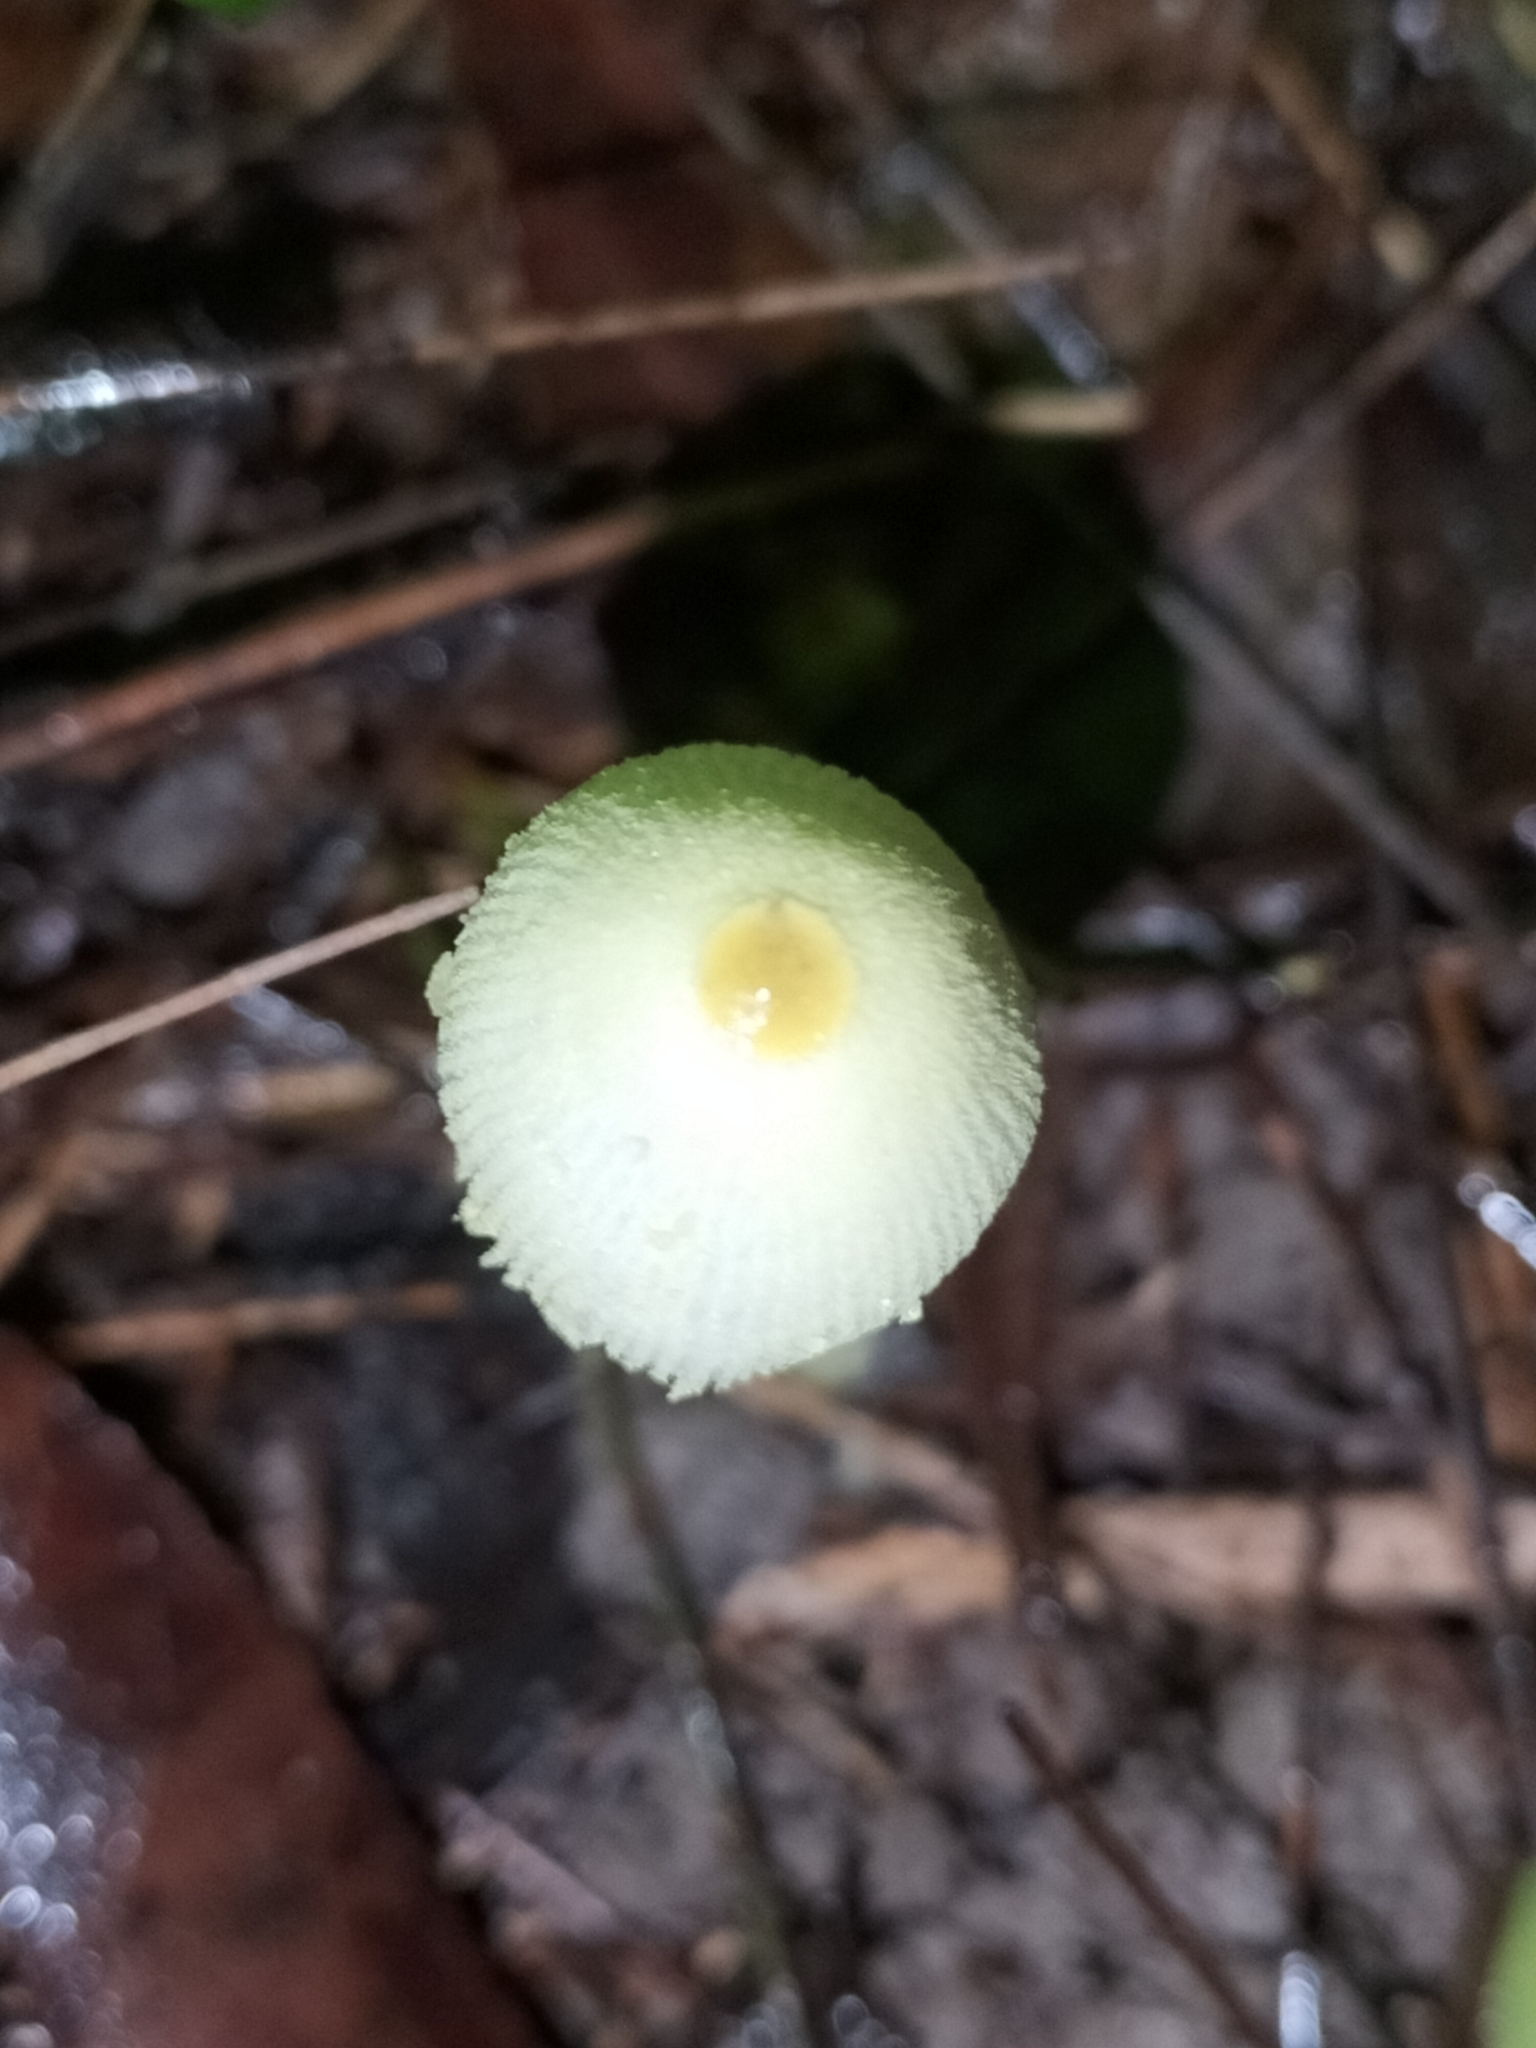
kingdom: Fungi
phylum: Basidiomycota
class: Agaricomycetes
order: Agaricales
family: Agaricaceae
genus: Leucocoprinus
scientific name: Leucocoprinus fragilissimus
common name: Fragile dapperling
